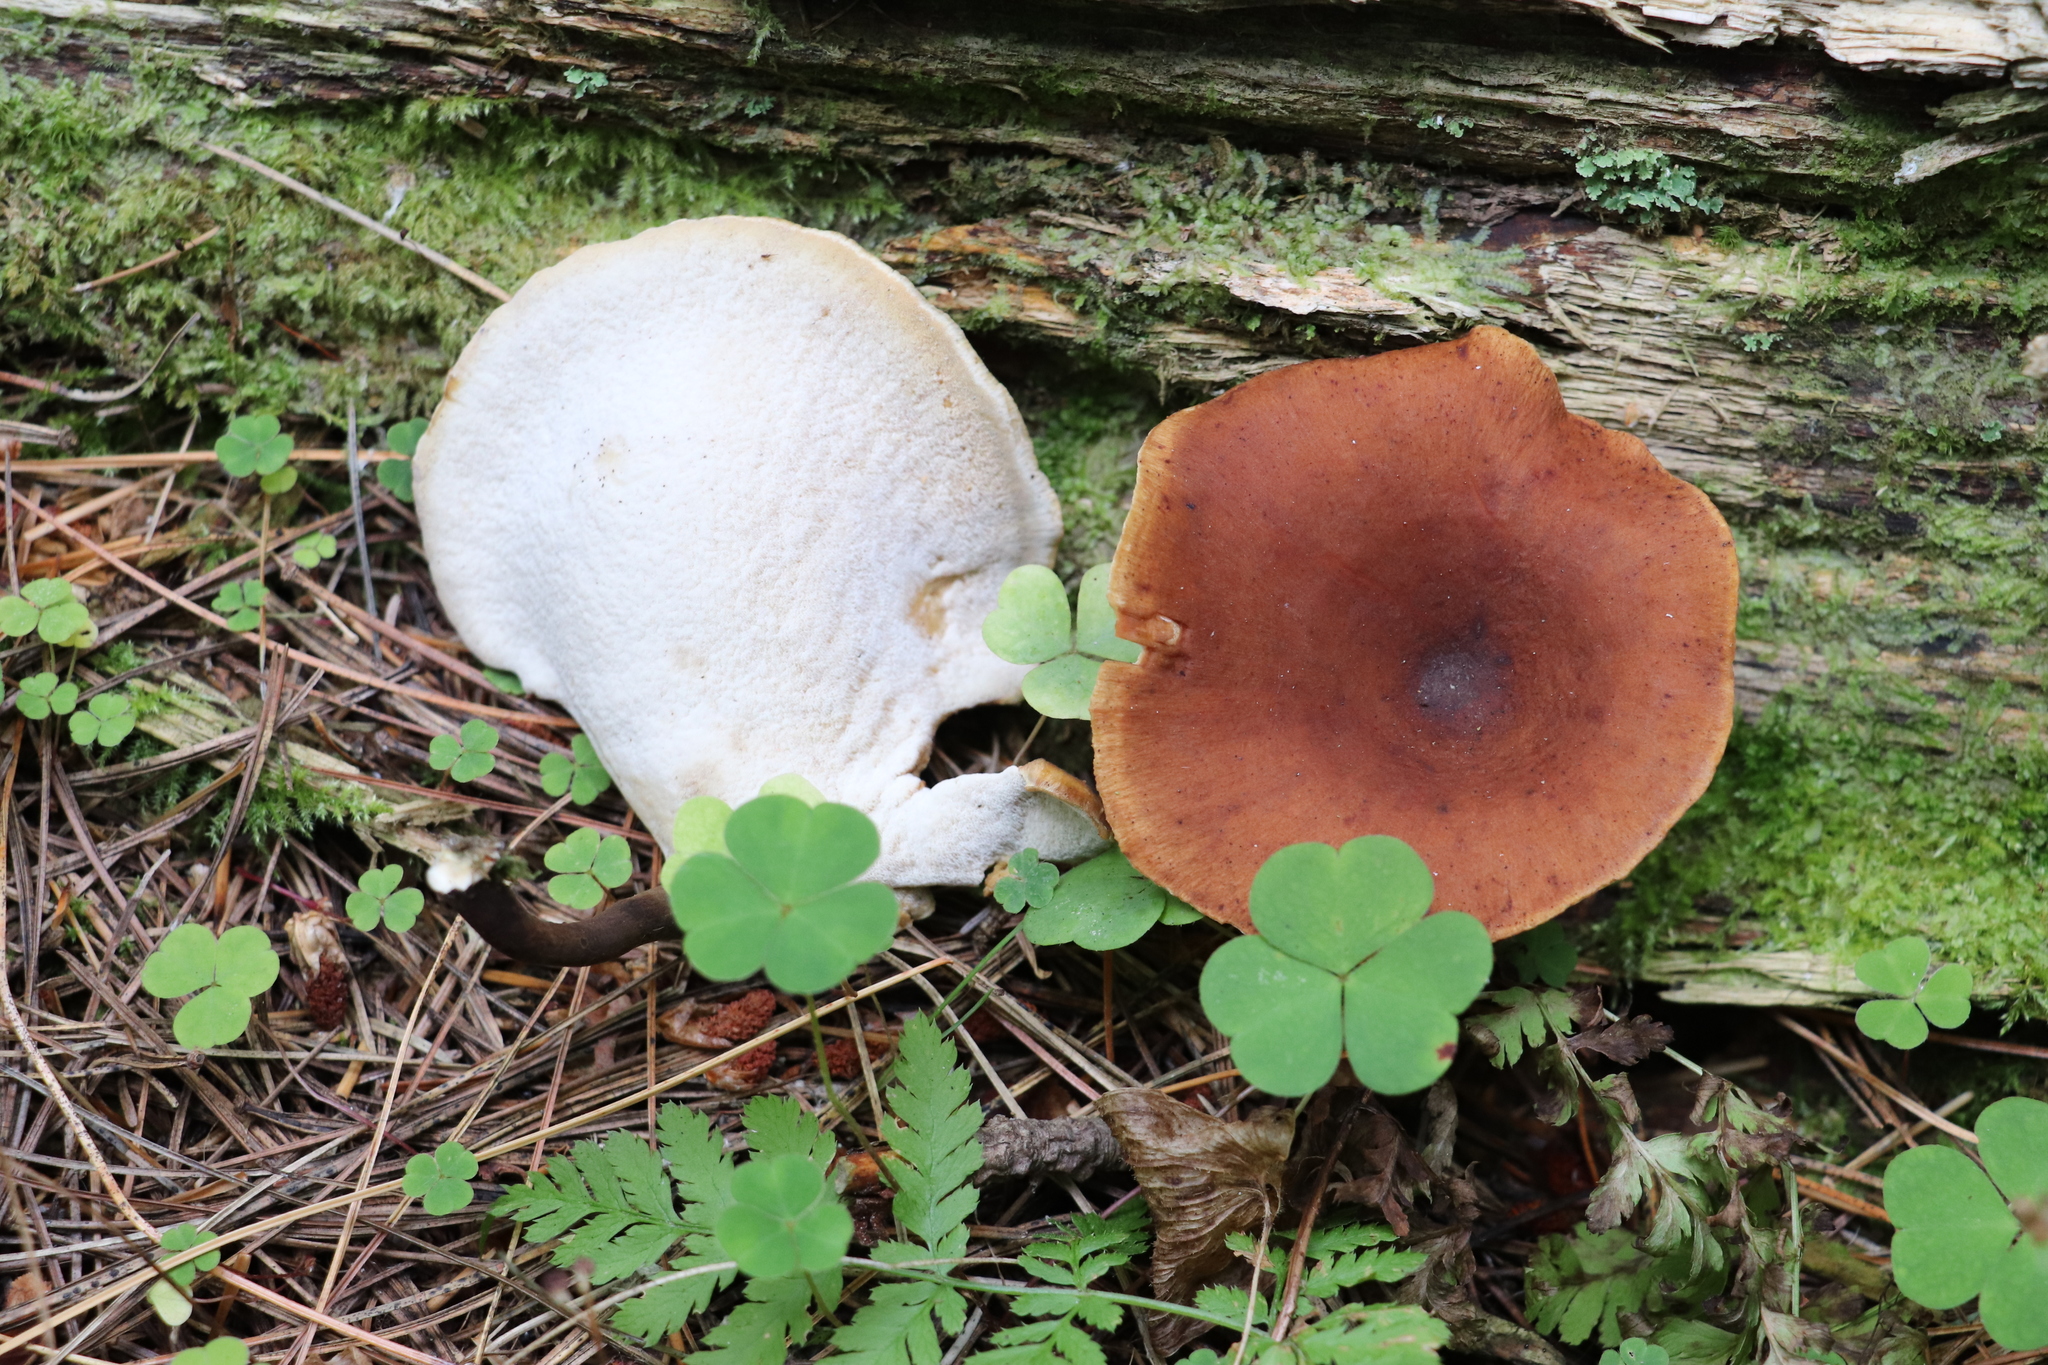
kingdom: Fungi
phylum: Basidiomycota
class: Agaricomycetes
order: Polyporales
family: Polyporaceae
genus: Picipes
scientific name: Picipes badius
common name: Bay polypore
